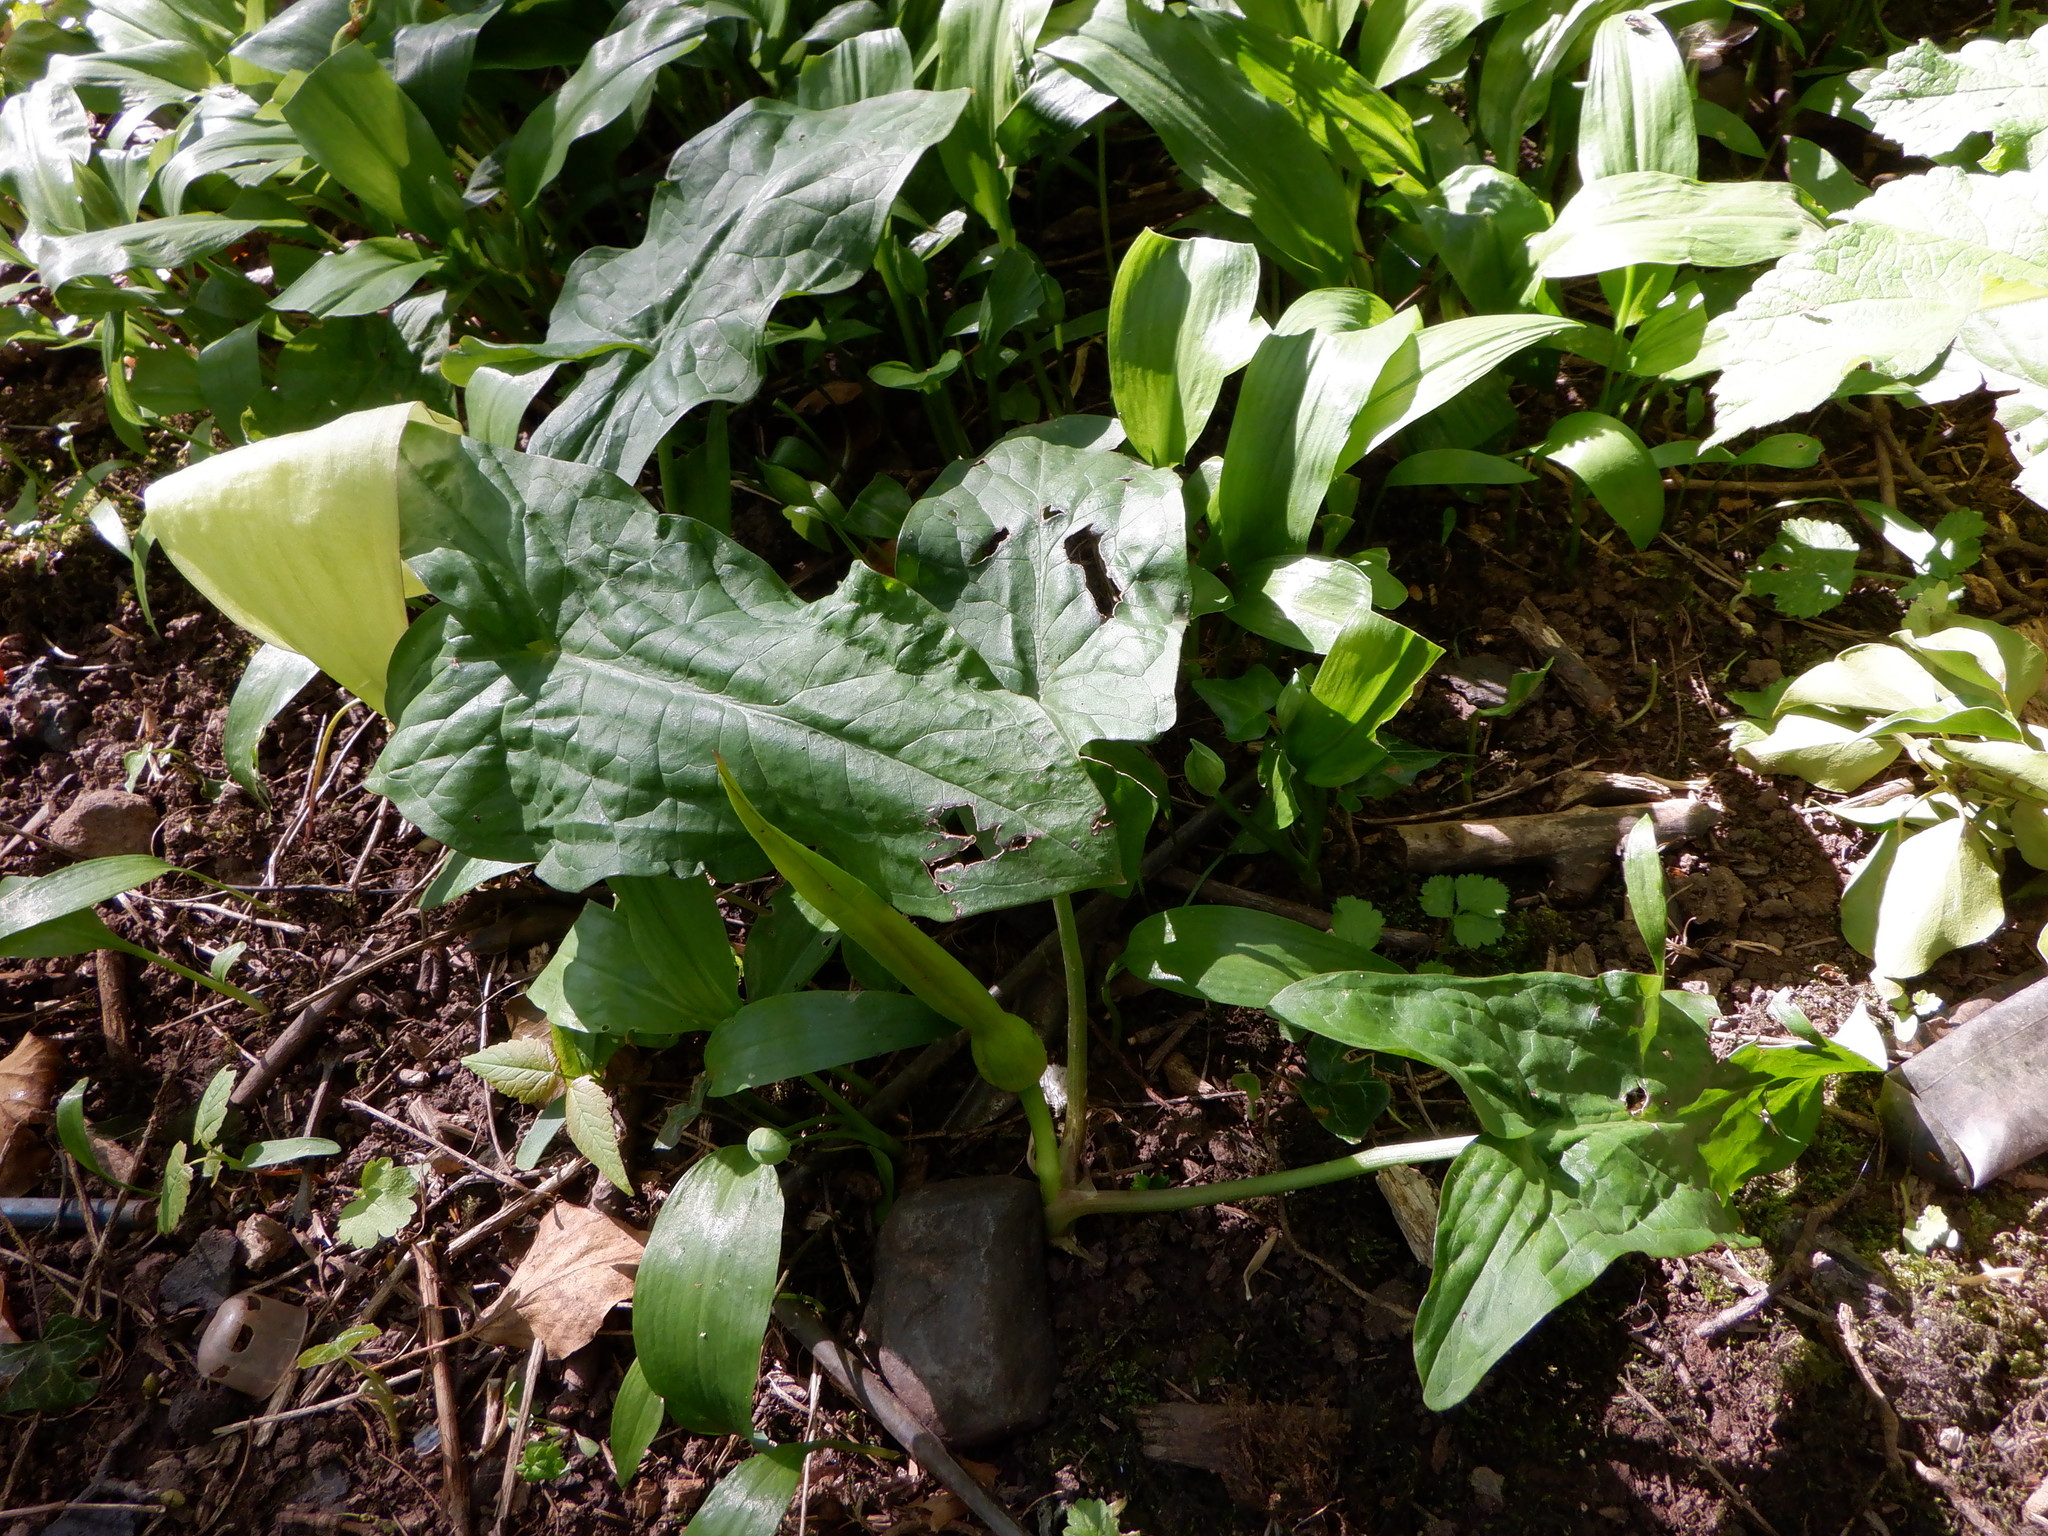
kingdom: Plantae
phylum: Tracheophyta
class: Liliopsida
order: Alismatales
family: Araceae
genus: Arum
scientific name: Arum maculatum
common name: Lords-and-ladies
